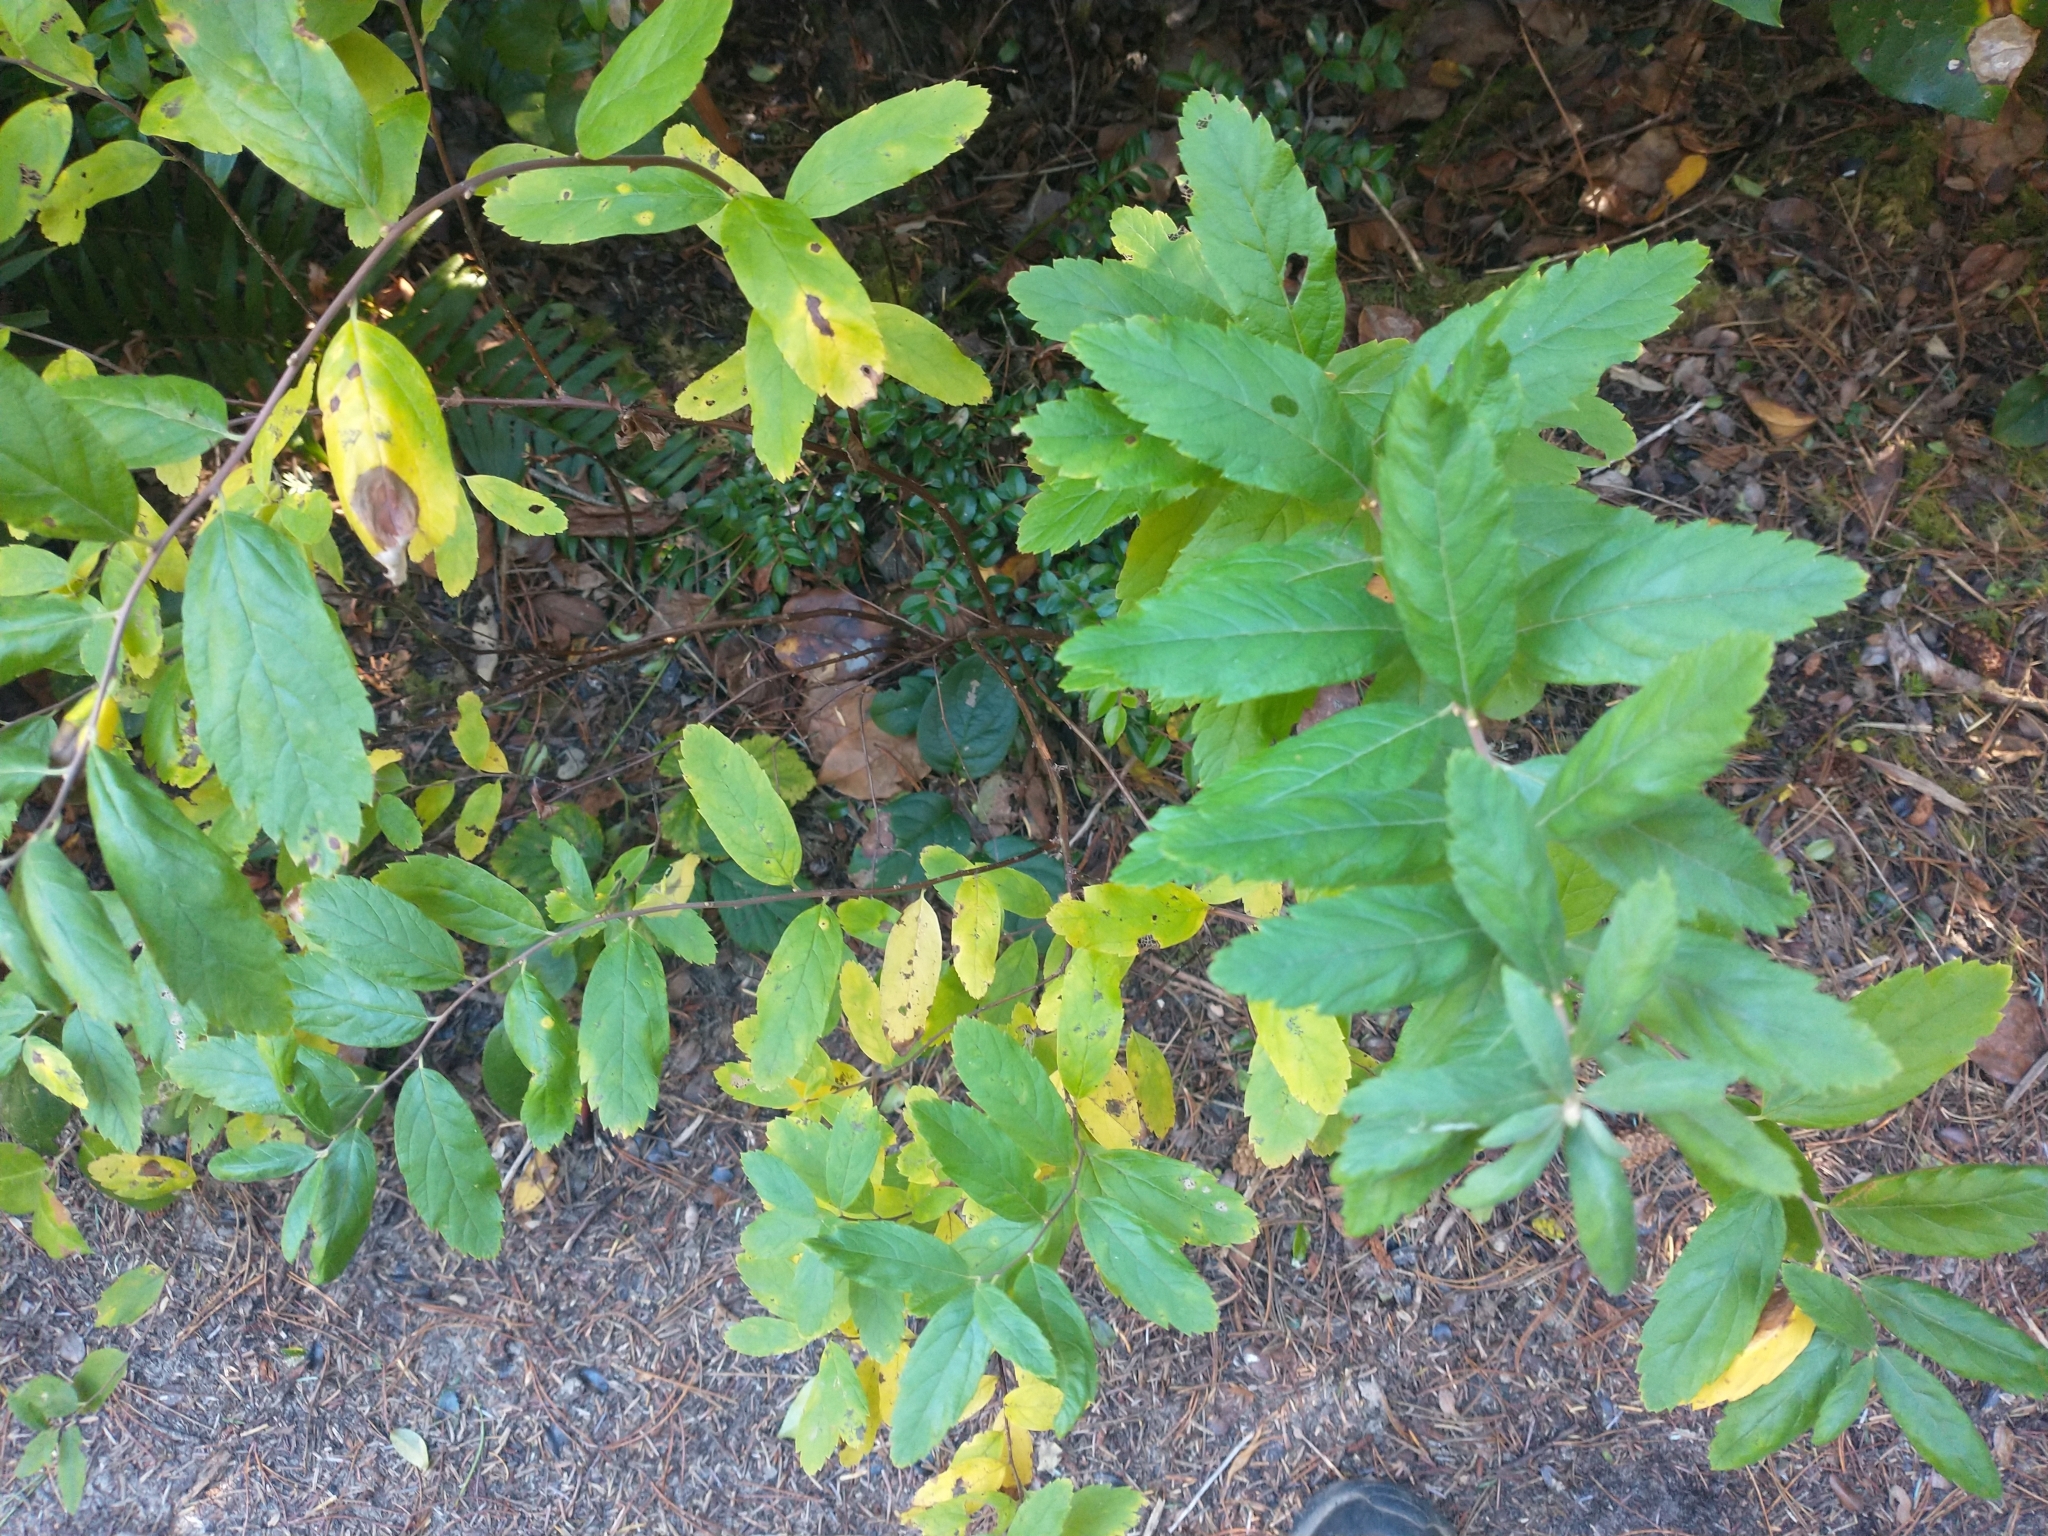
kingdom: Plantae
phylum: Tracheophyta
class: Magnoliopsida
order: Rosales
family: Rosaceae
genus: Spiraea
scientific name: Spiraea douglasii
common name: Steeplebush
